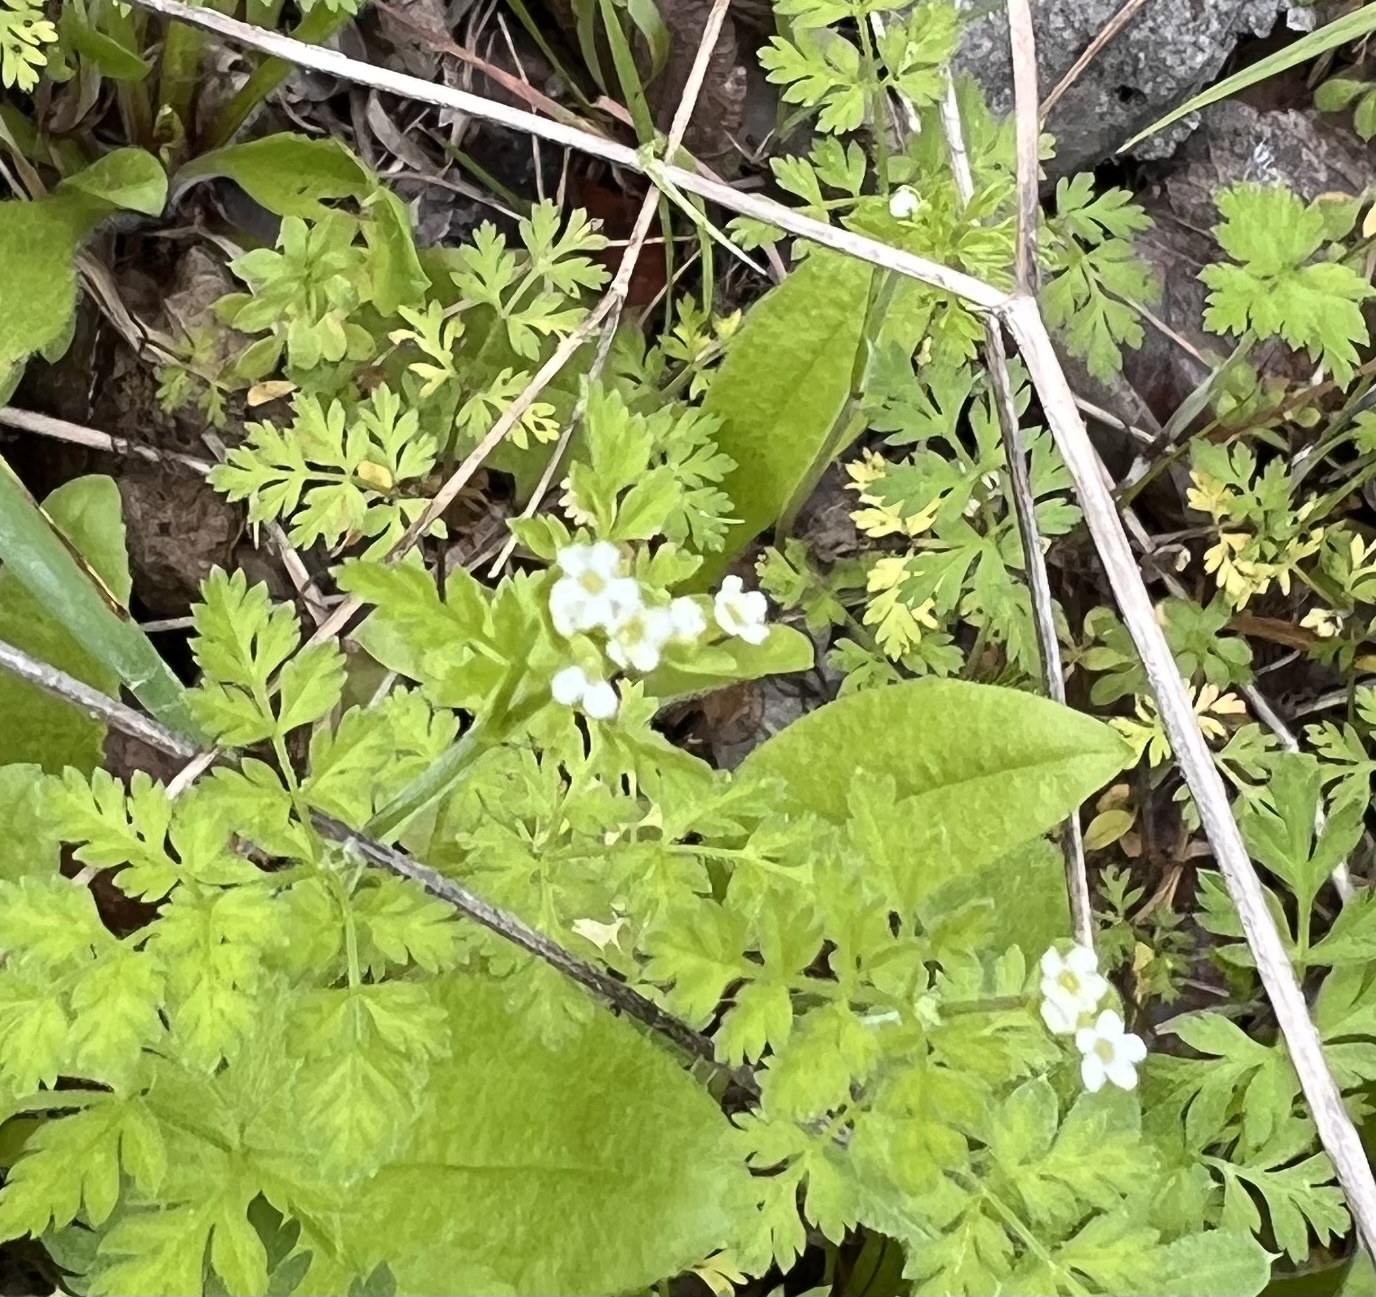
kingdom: Plantae
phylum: Tracheophyta
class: Magnoliopsida
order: Apiales
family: Apiaceae
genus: Chaerophyllum
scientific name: Chaerophyllum tainturieri
